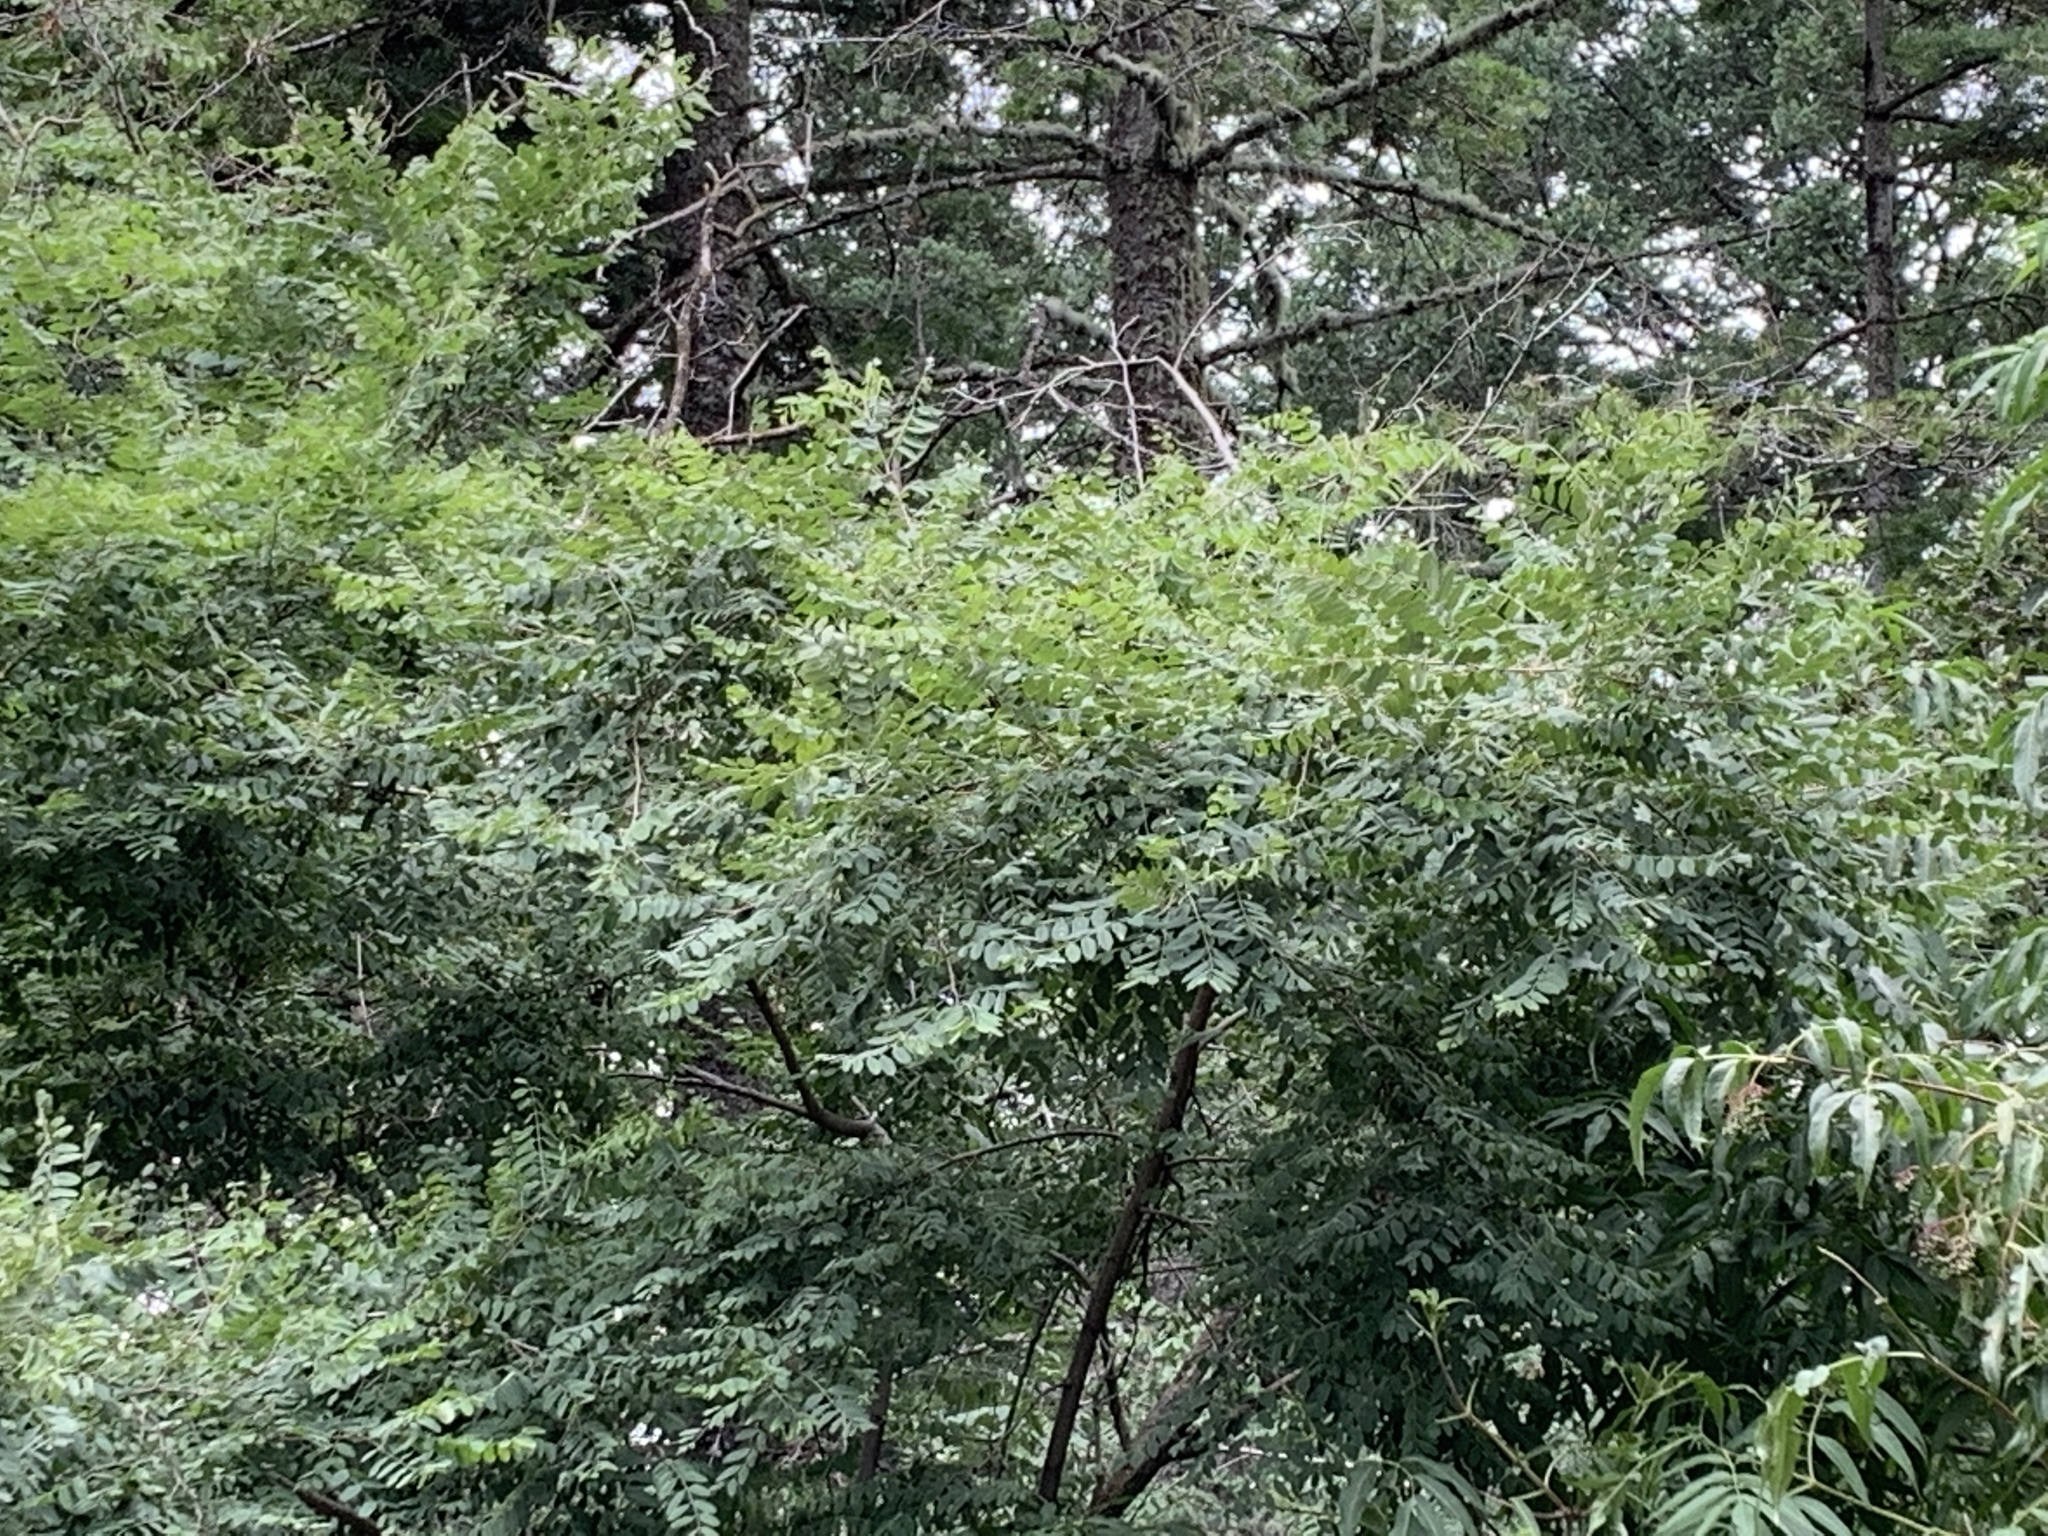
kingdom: Plantae
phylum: Tracheophyta
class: Magnoliopsida
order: Fabales
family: Fabaceae
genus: Robinia
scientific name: Robinia neomexicana
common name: New mexico locust
